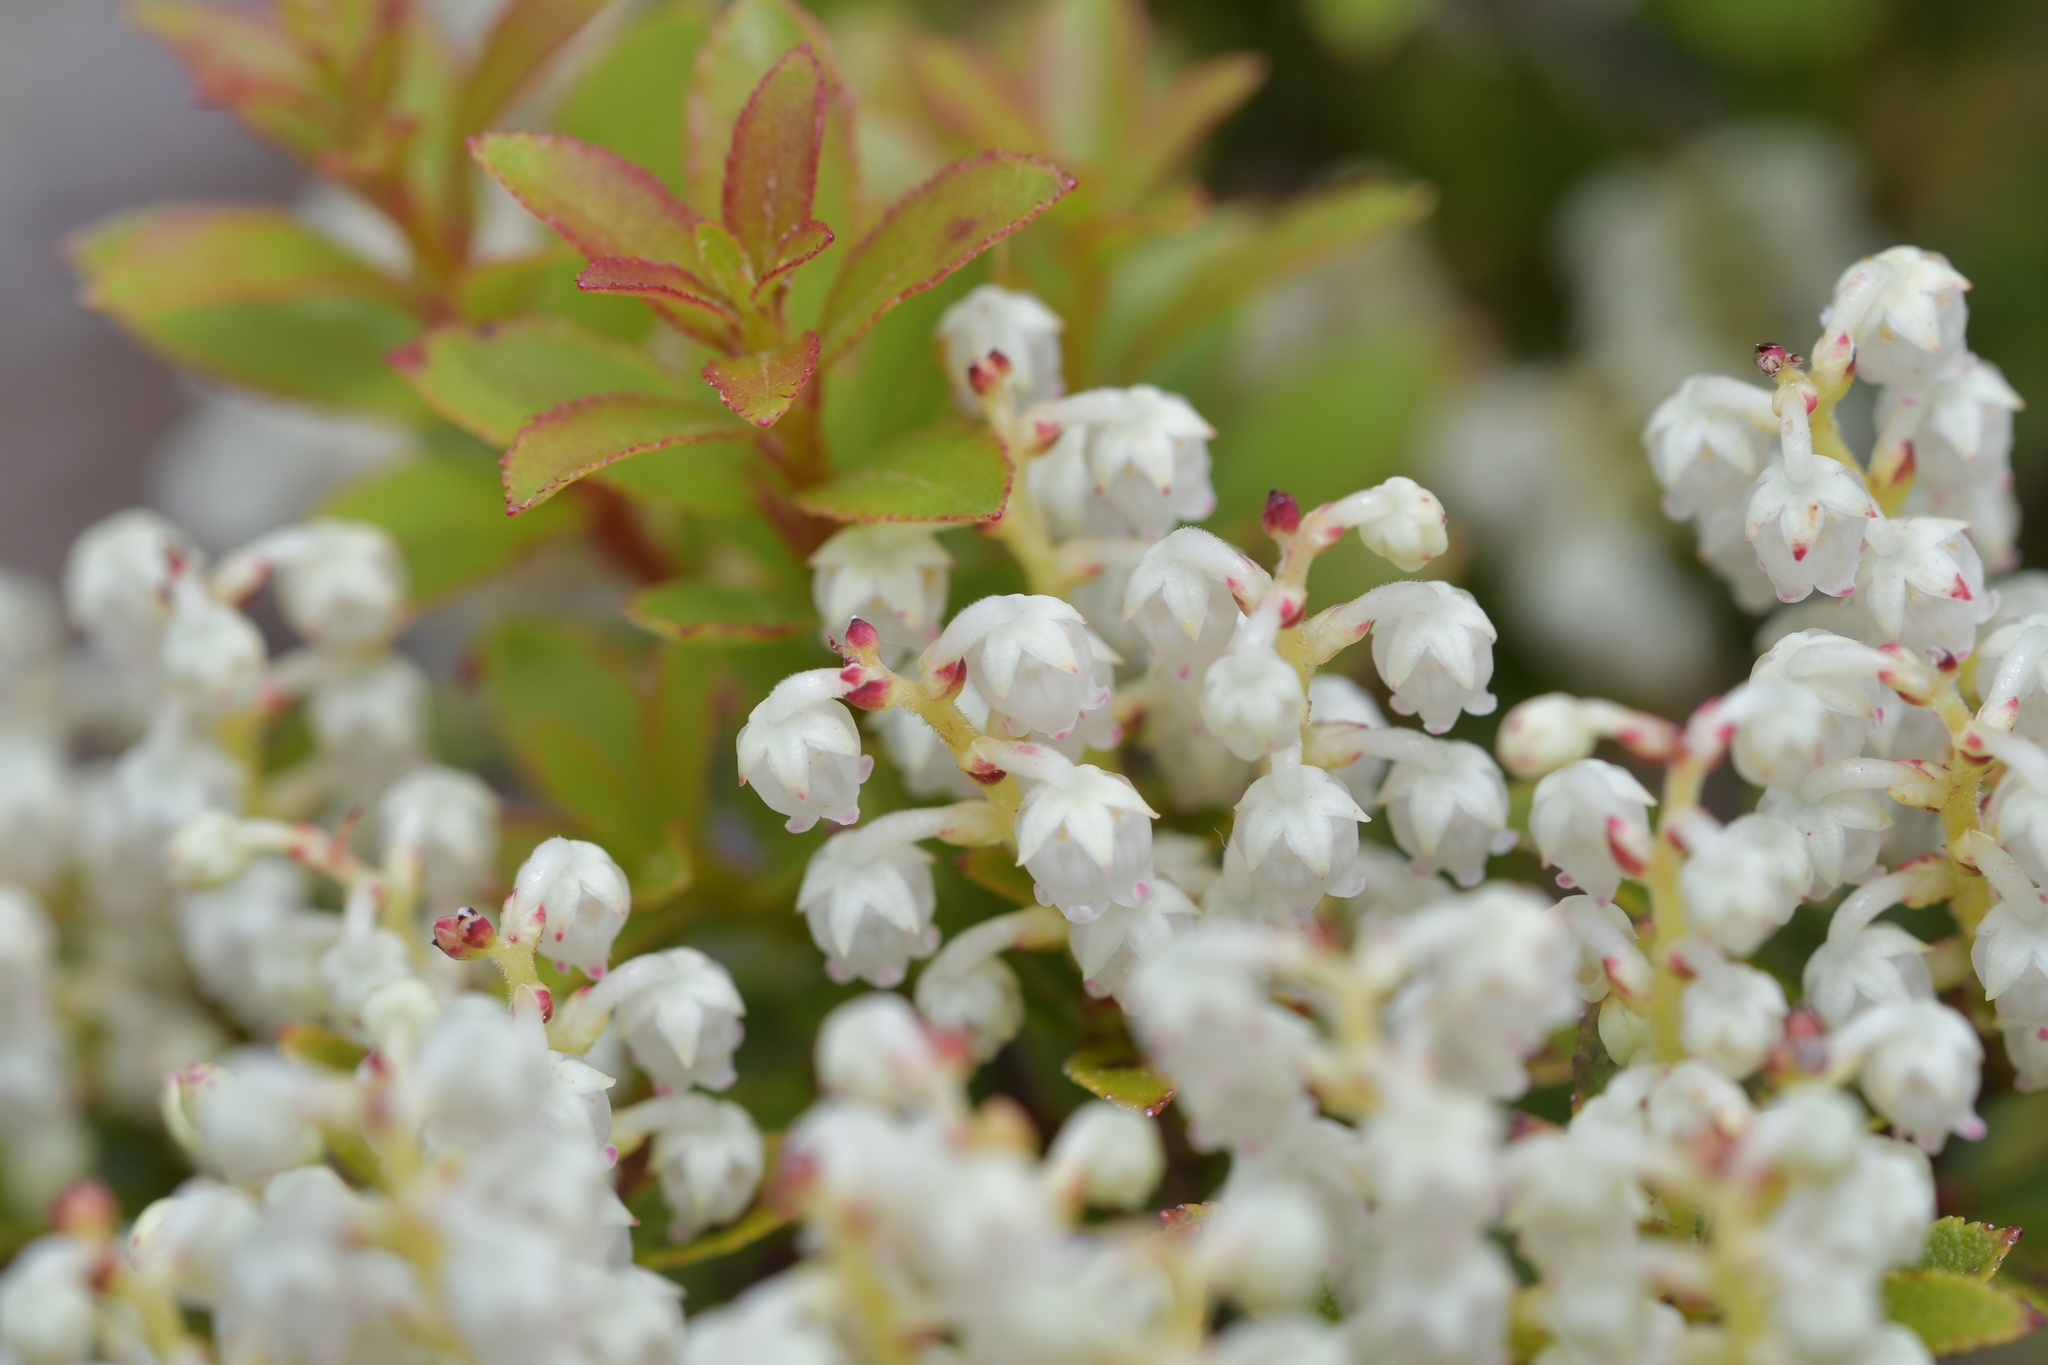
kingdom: Plantae
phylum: Tracheophyta
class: Magnoliopsida
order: Ericales
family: Ericaceae
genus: Gaultheria
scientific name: Gaultheria rupestris
